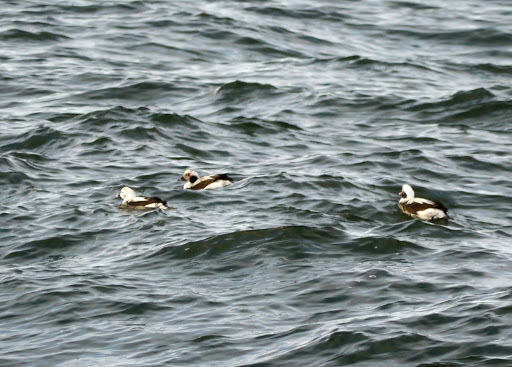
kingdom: Animalia
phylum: Chordata
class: Aves
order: Anseriformes
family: Anatidae
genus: Clangula
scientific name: Clangula hyemalis
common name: Long-tailed duck
